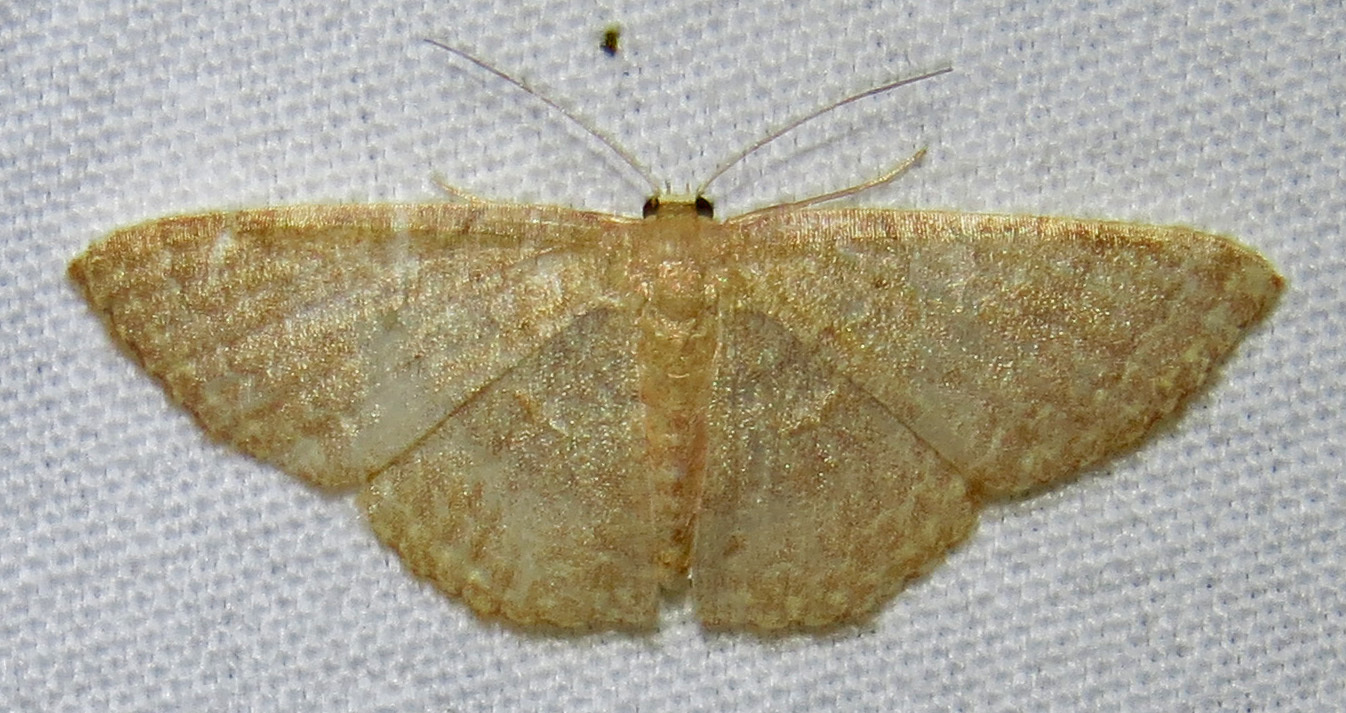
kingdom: Animalia
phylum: Arthropoda
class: Insecta
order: Lepidoptera
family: Geometridae
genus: Pleuroprucha
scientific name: Pleuroprucha insulsaria
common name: Common tan wave
